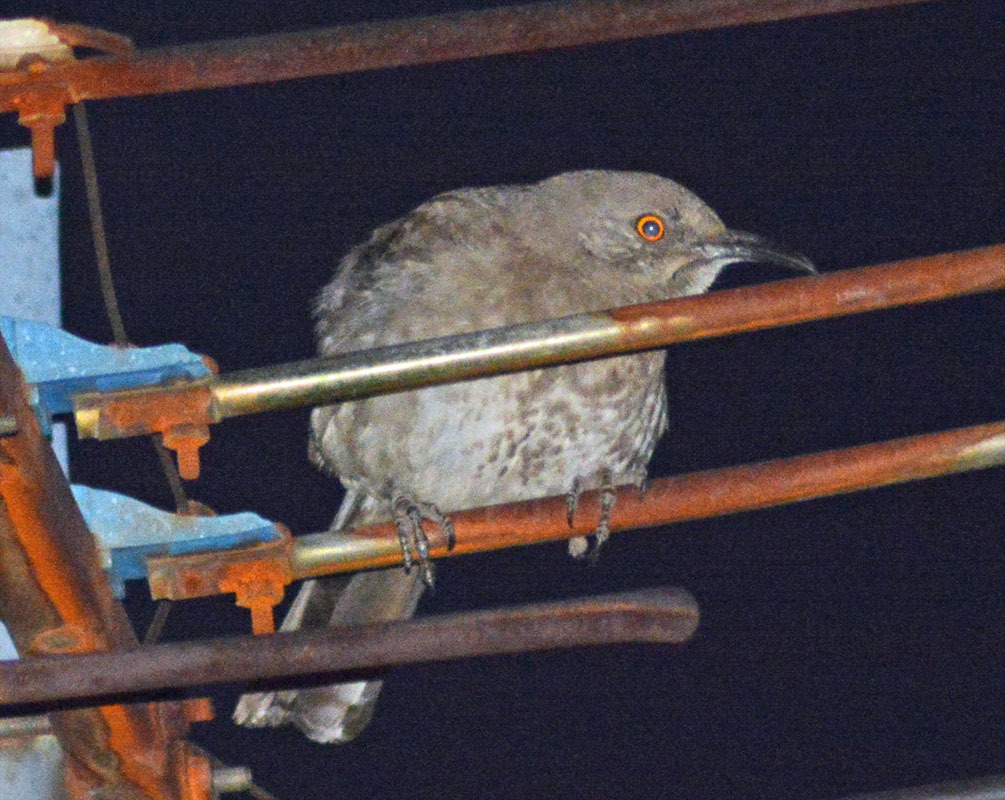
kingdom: Animalia
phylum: Chordata
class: Aves
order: Passeriformes
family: Mimidae
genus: Toxostoma
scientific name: Toxostoma curvirostre
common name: Curve-billed thrasher
